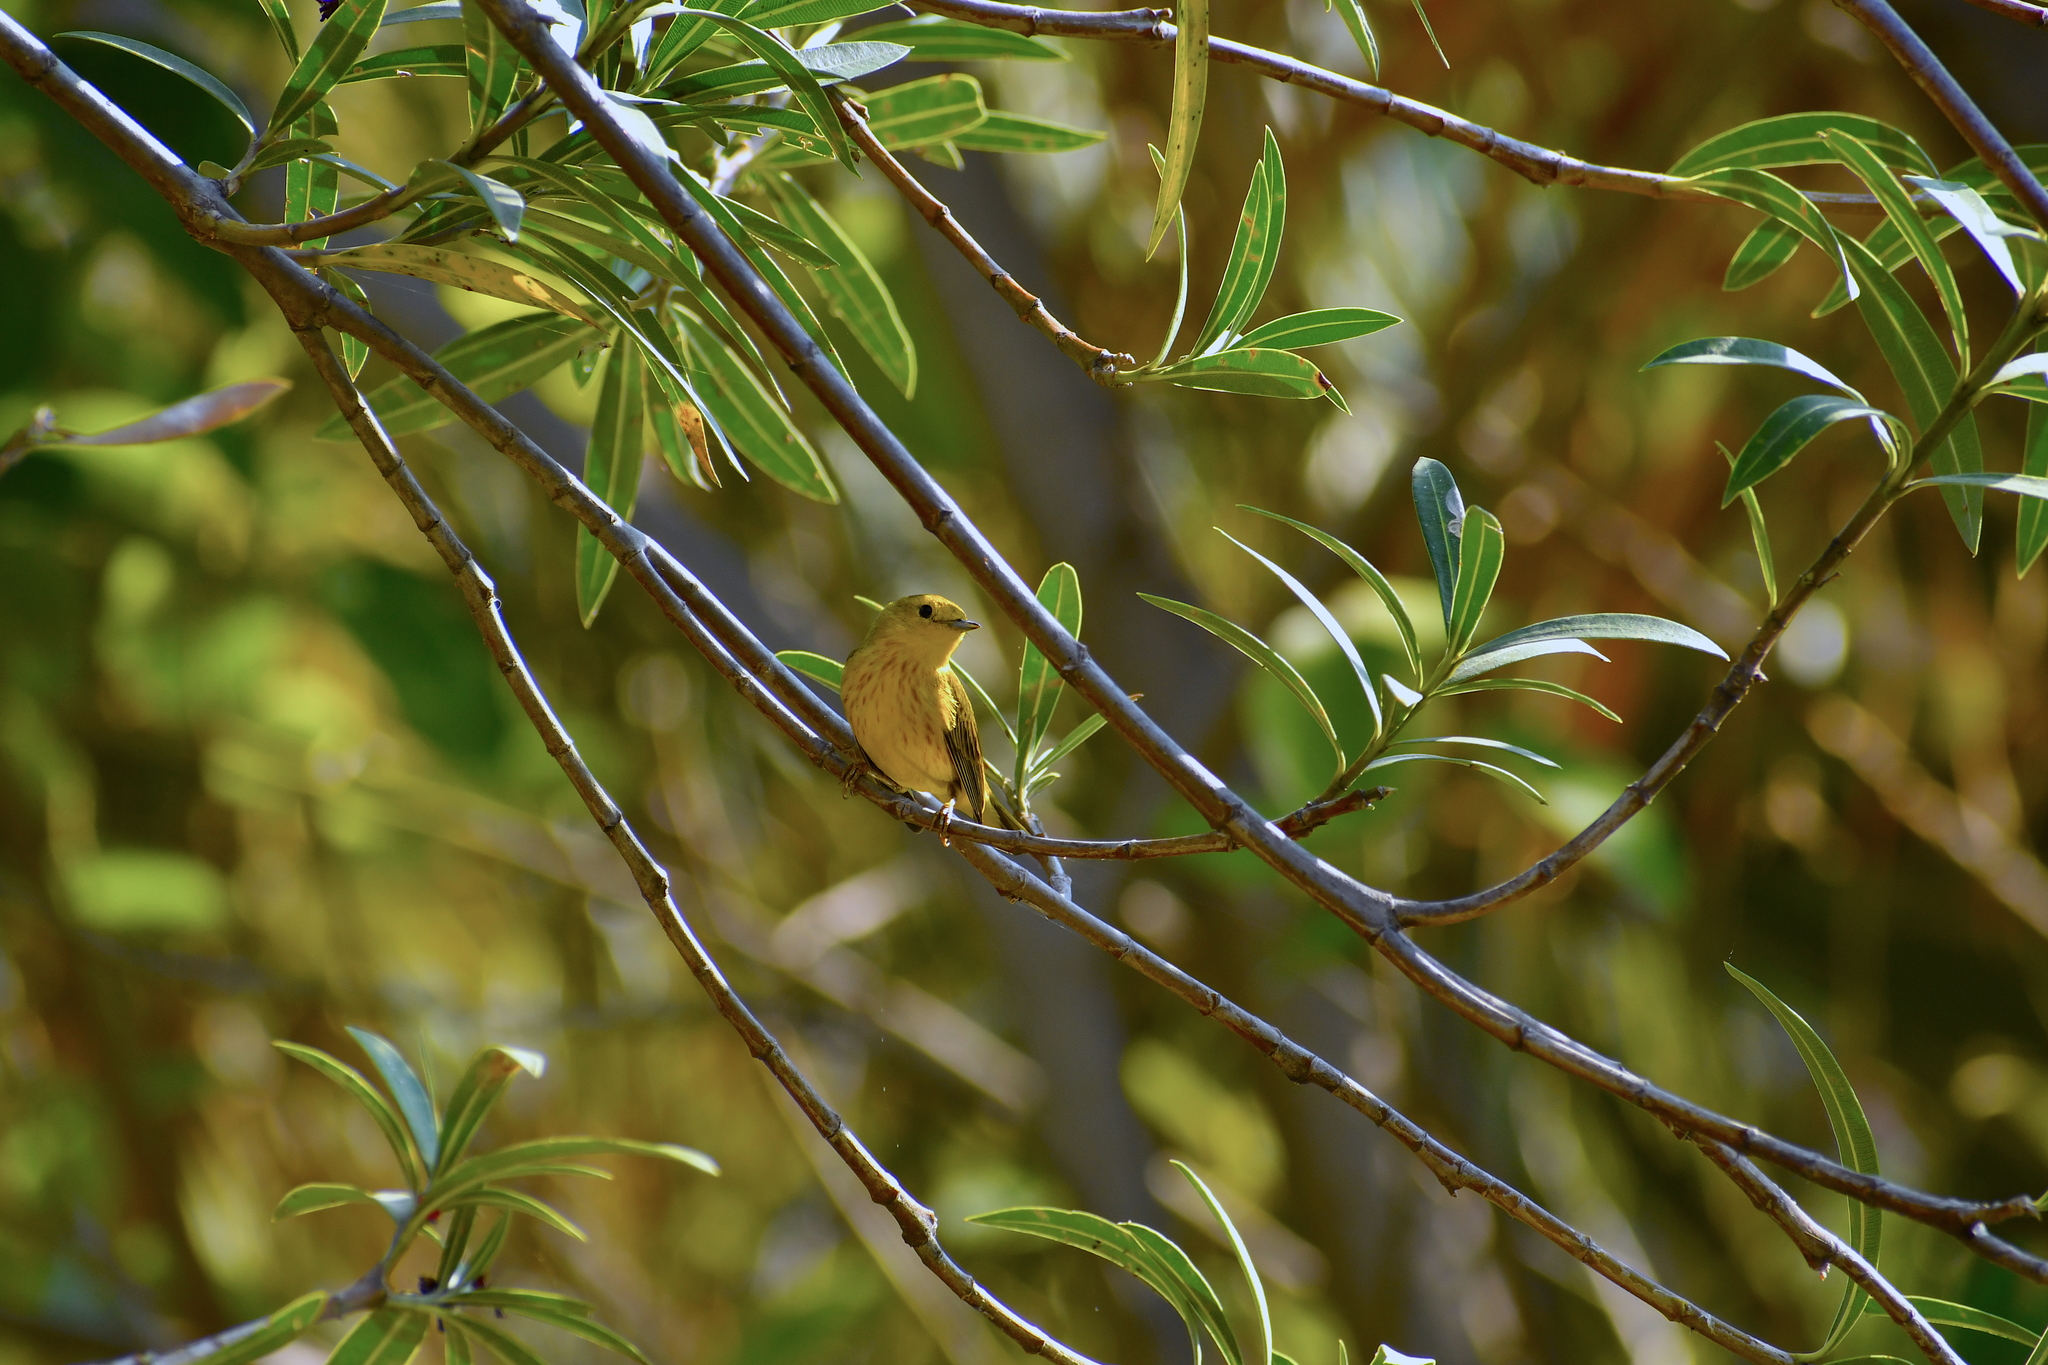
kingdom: Animalia
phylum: Chordata
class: Aves
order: Passeriformes
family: Parulidae
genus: Setophaga
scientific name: Setophaga petechia
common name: Yellow warbler
